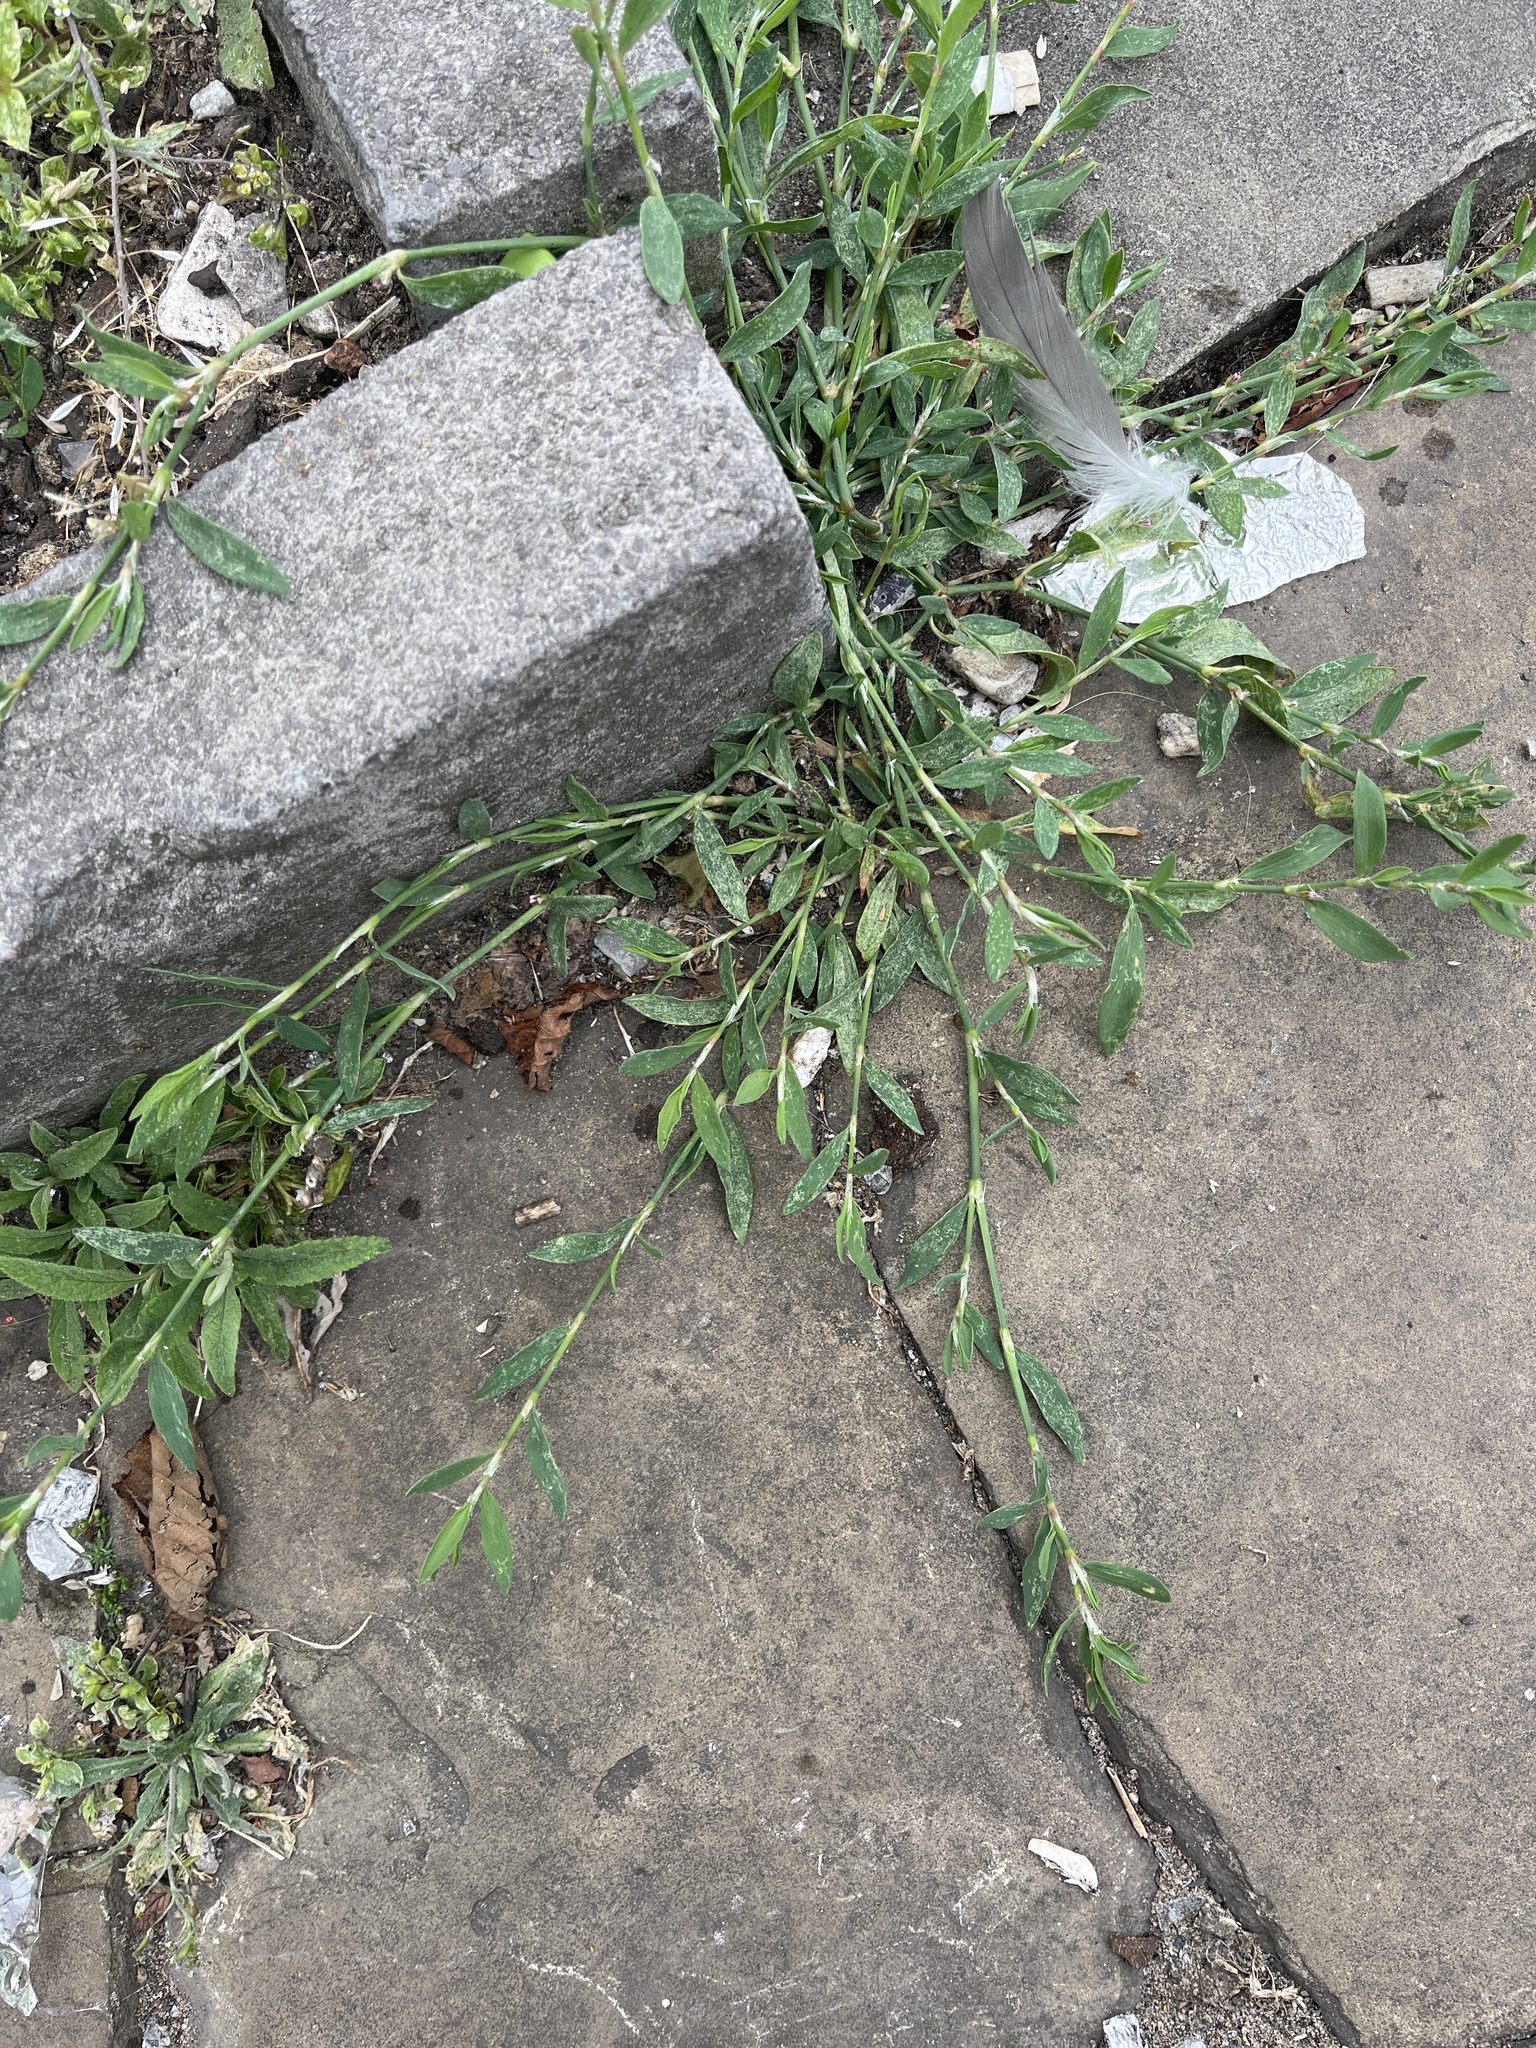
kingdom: Plantae
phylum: Tracheophyta
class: Magnoliopsida
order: Caryophyllales
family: Polygonaceae
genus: Polygonum
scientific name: Polygonum aviculare
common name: Prostrate knotweed
